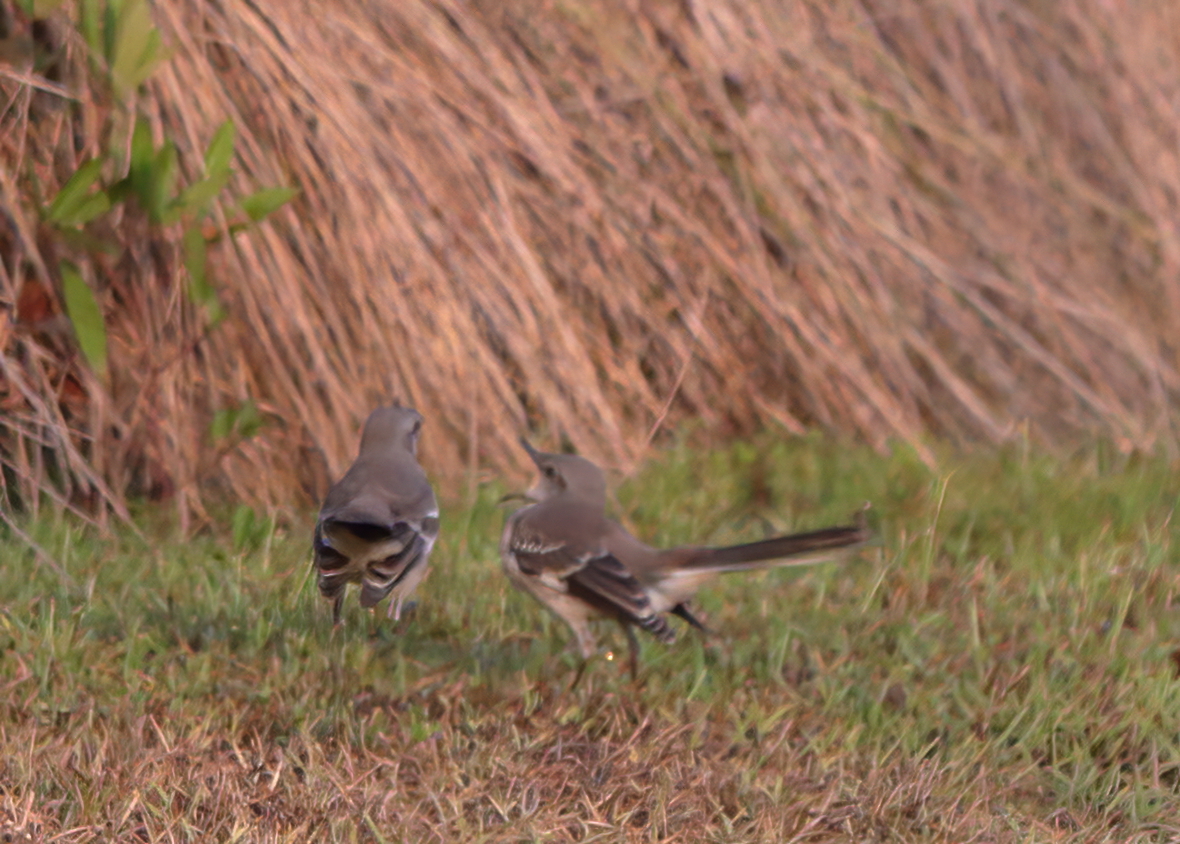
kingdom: Animalia
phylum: Chordata
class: Aves
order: Passeriformes
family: Mimidae
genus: Mimus
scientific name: Mimus polyglottos
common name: Northern mockingbird
